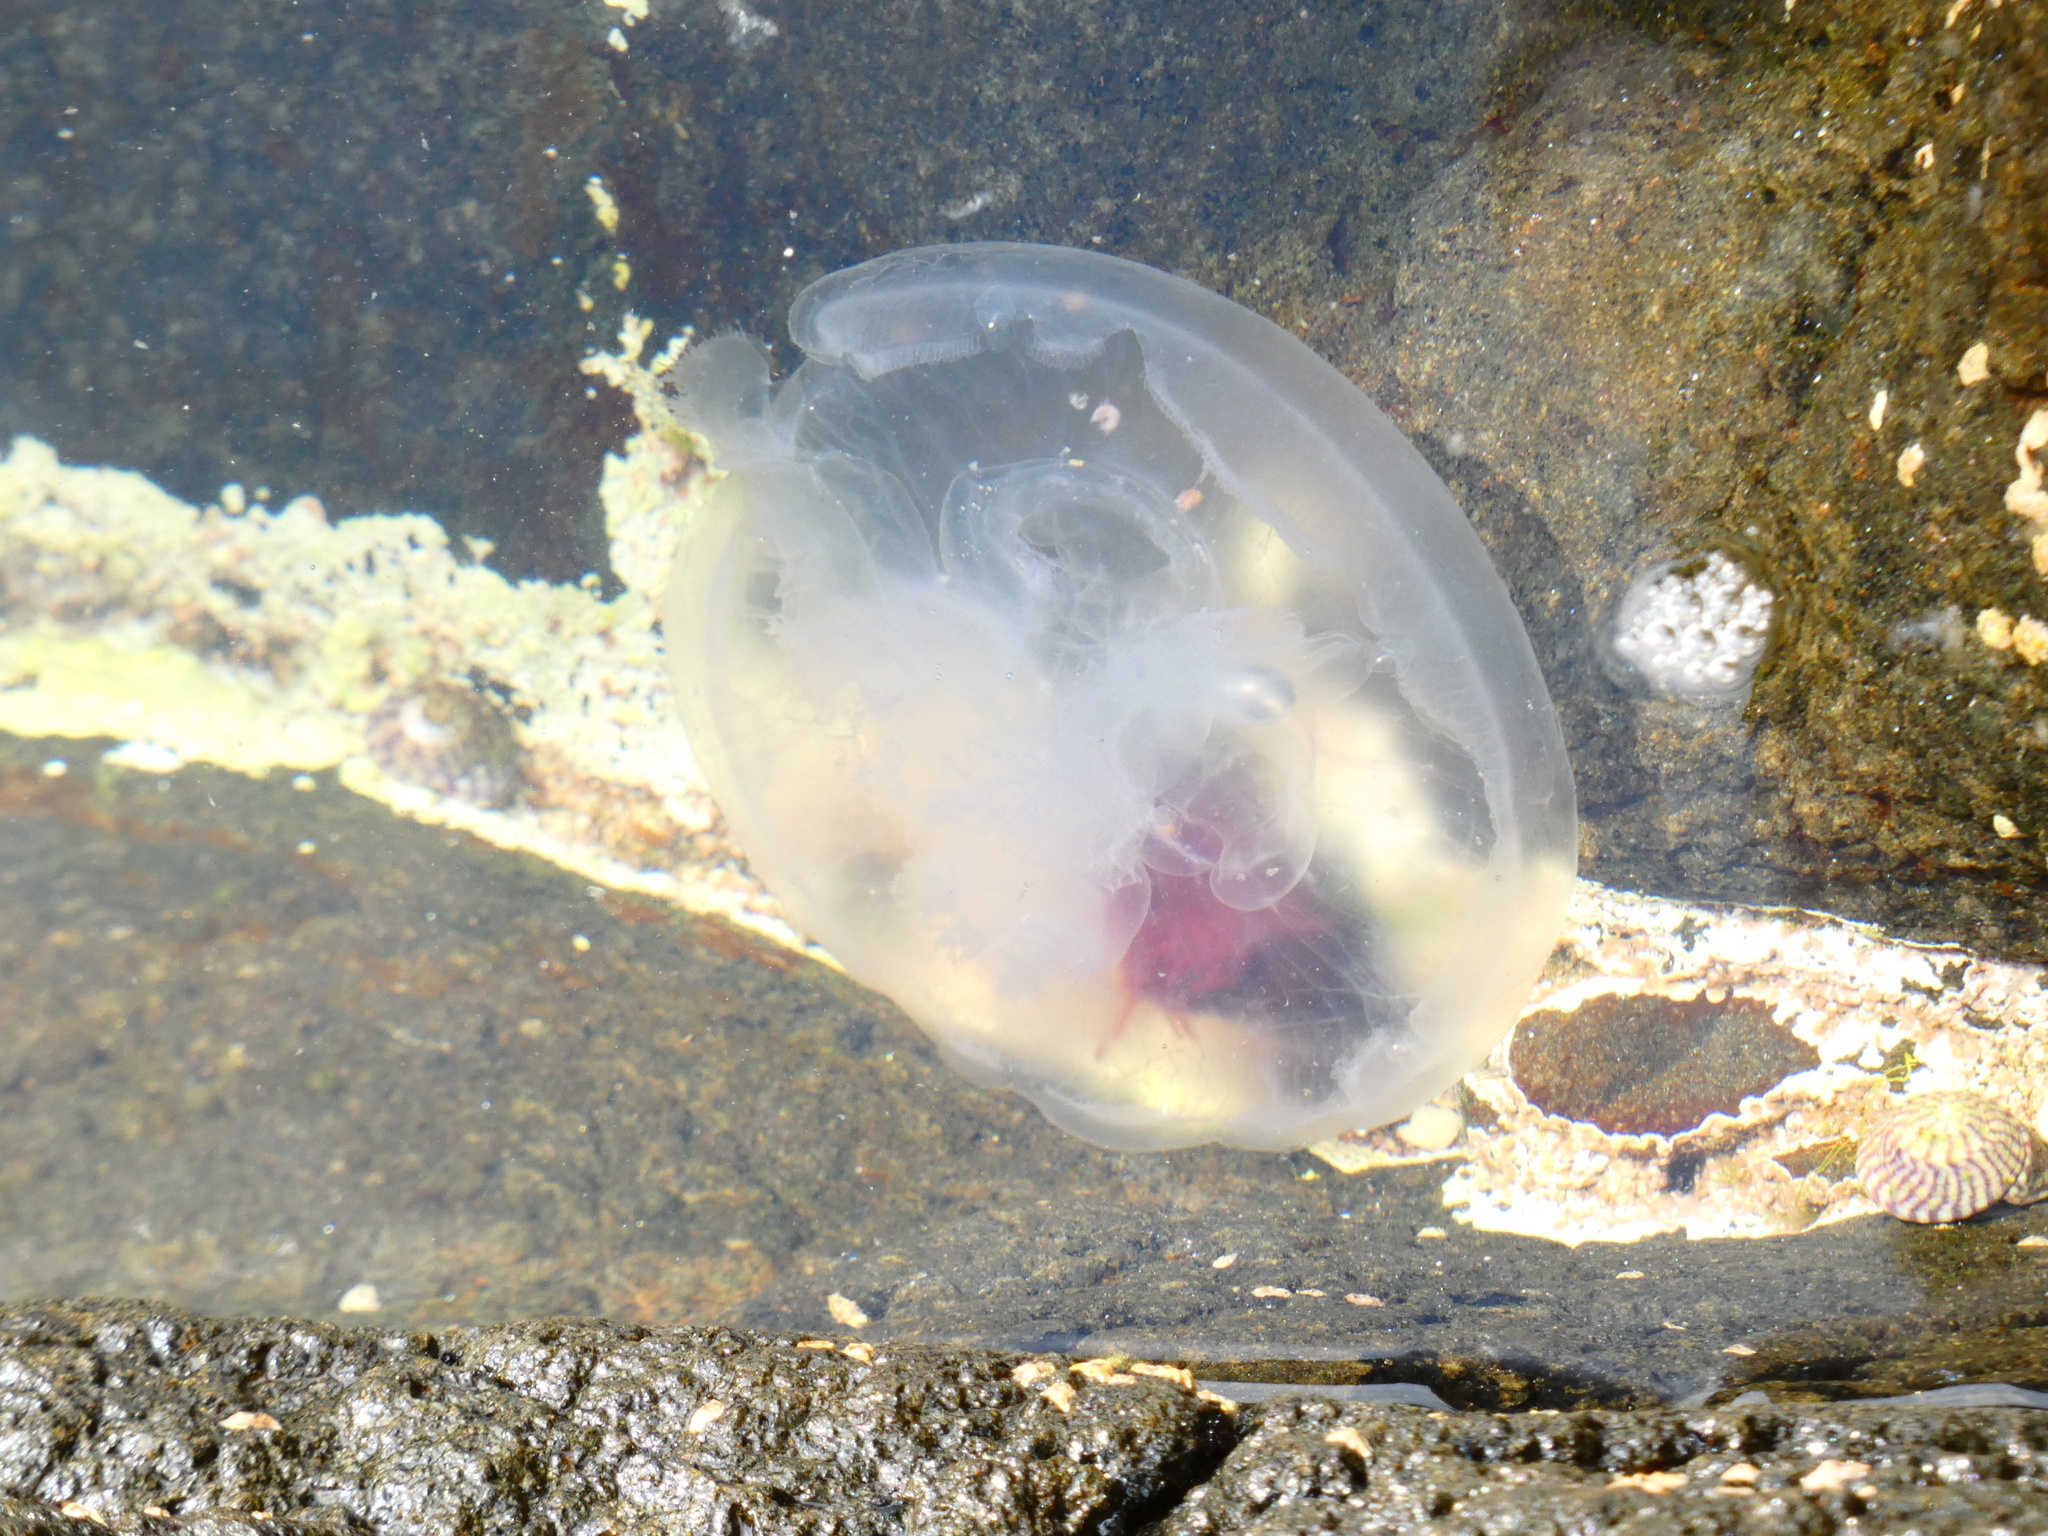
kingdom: Animalia
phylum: Cnidaria
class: Scyphozoa
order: Semaeostomeae
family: Ulmaridae
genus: Aurelia
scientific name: Aurelia aurita
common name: Moon jellyfish
